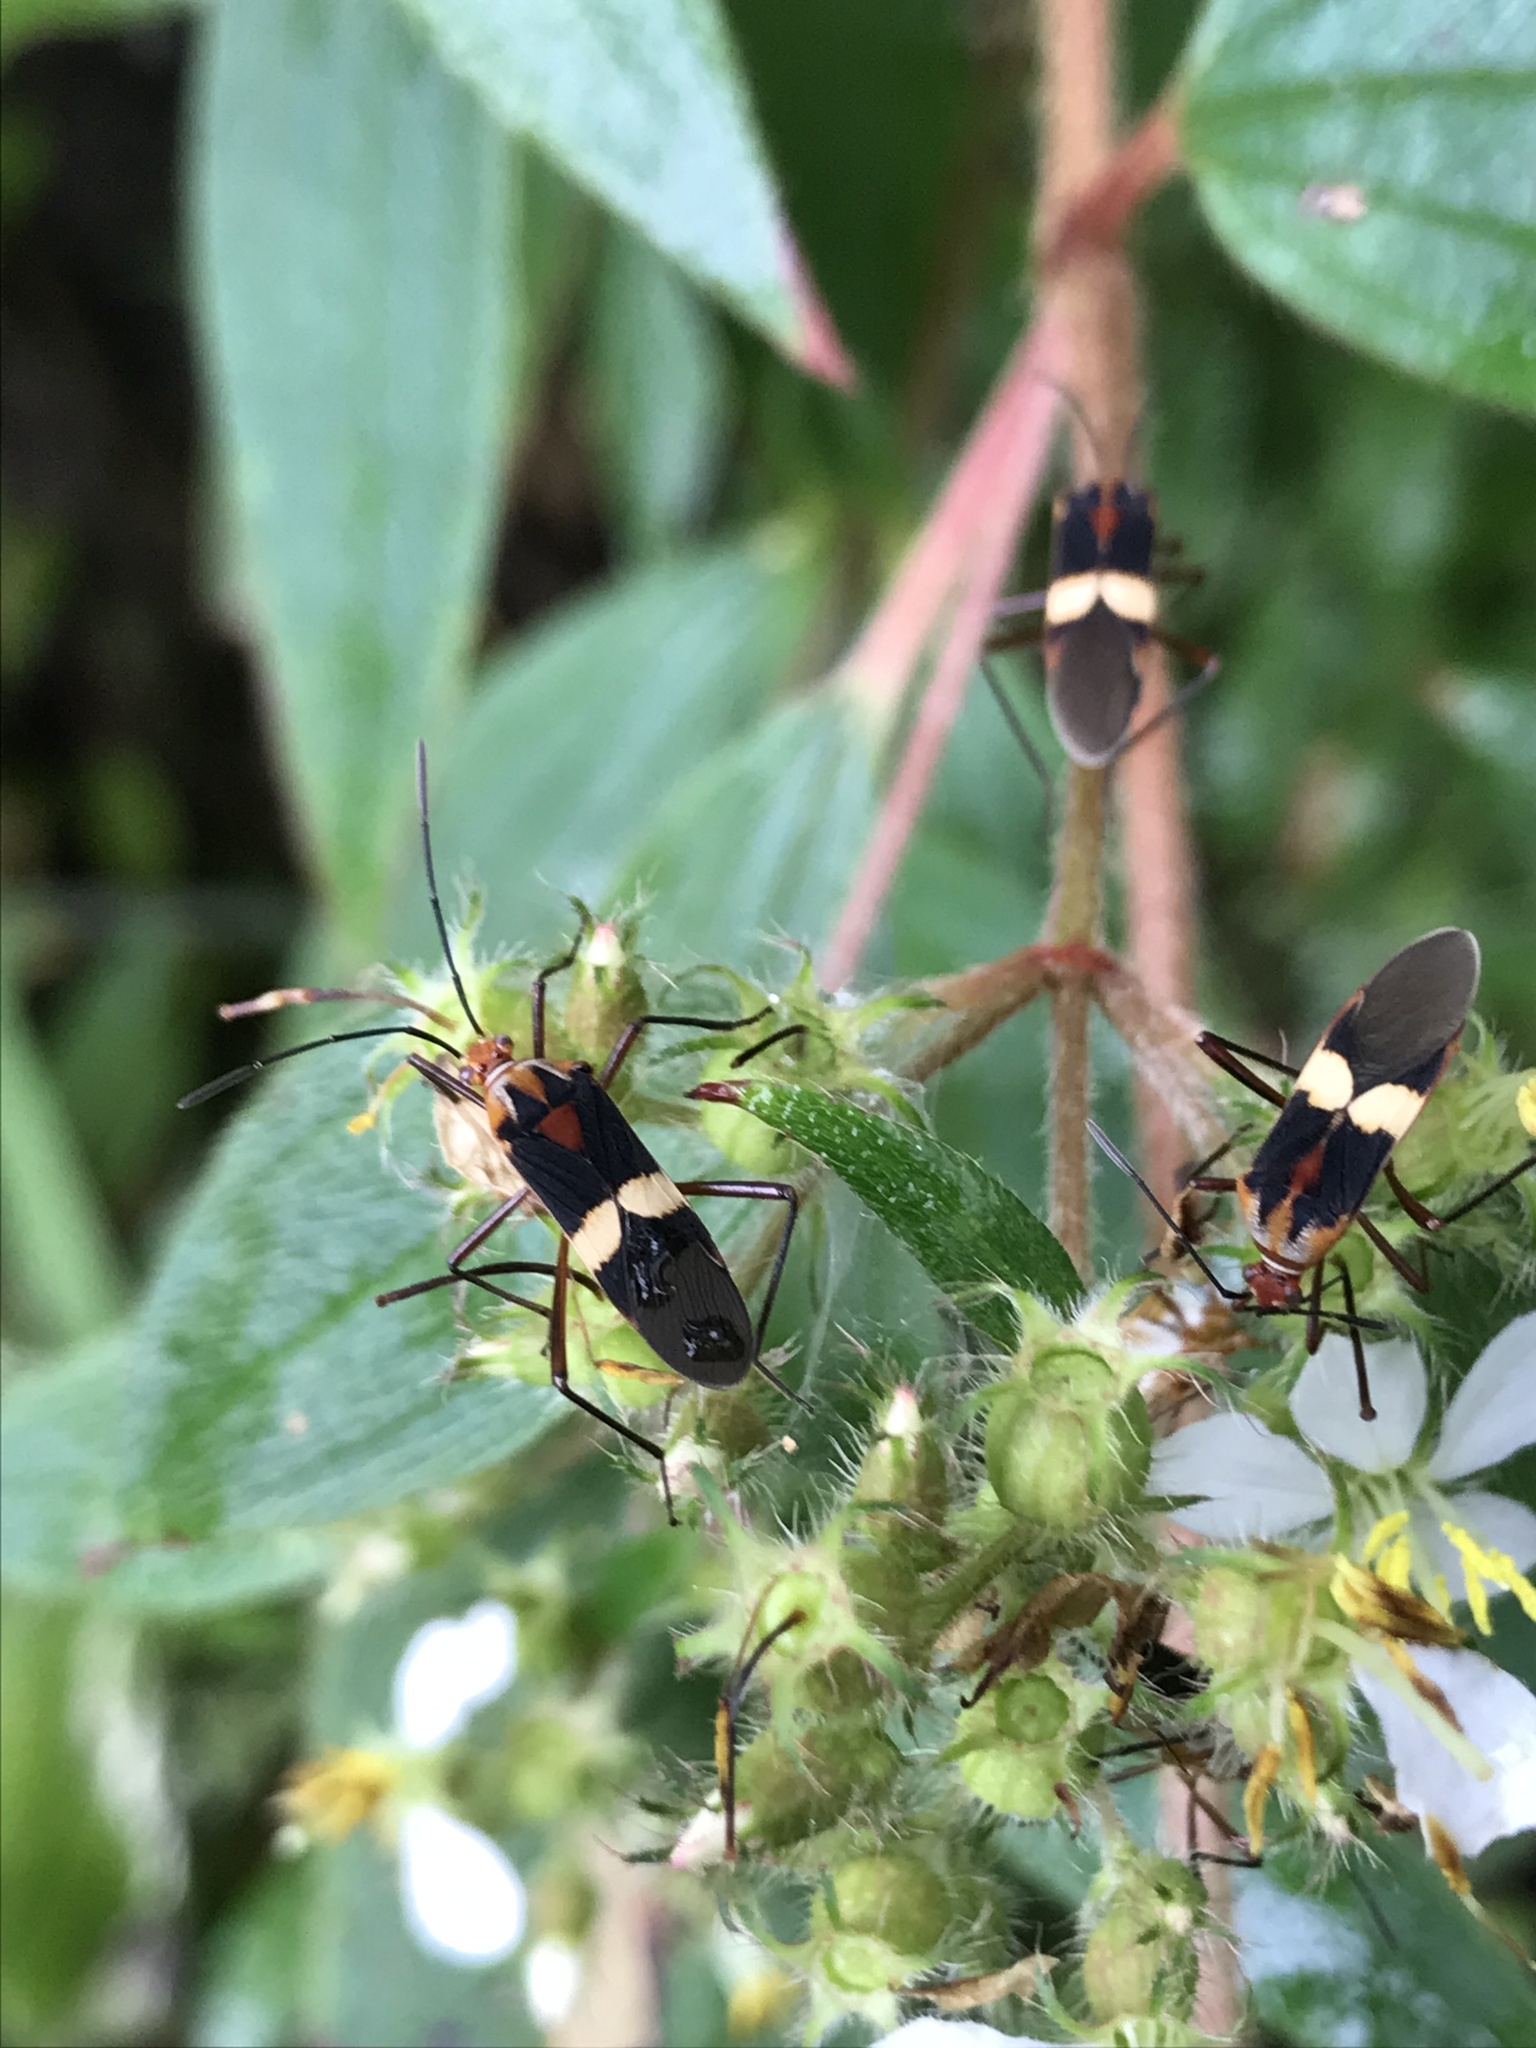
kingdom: Animalia
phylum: Arthropoda
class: Insecta
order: Hemiptera
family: Coreidae
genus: Hypselonotus
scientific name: Hypselonotus interruptus
